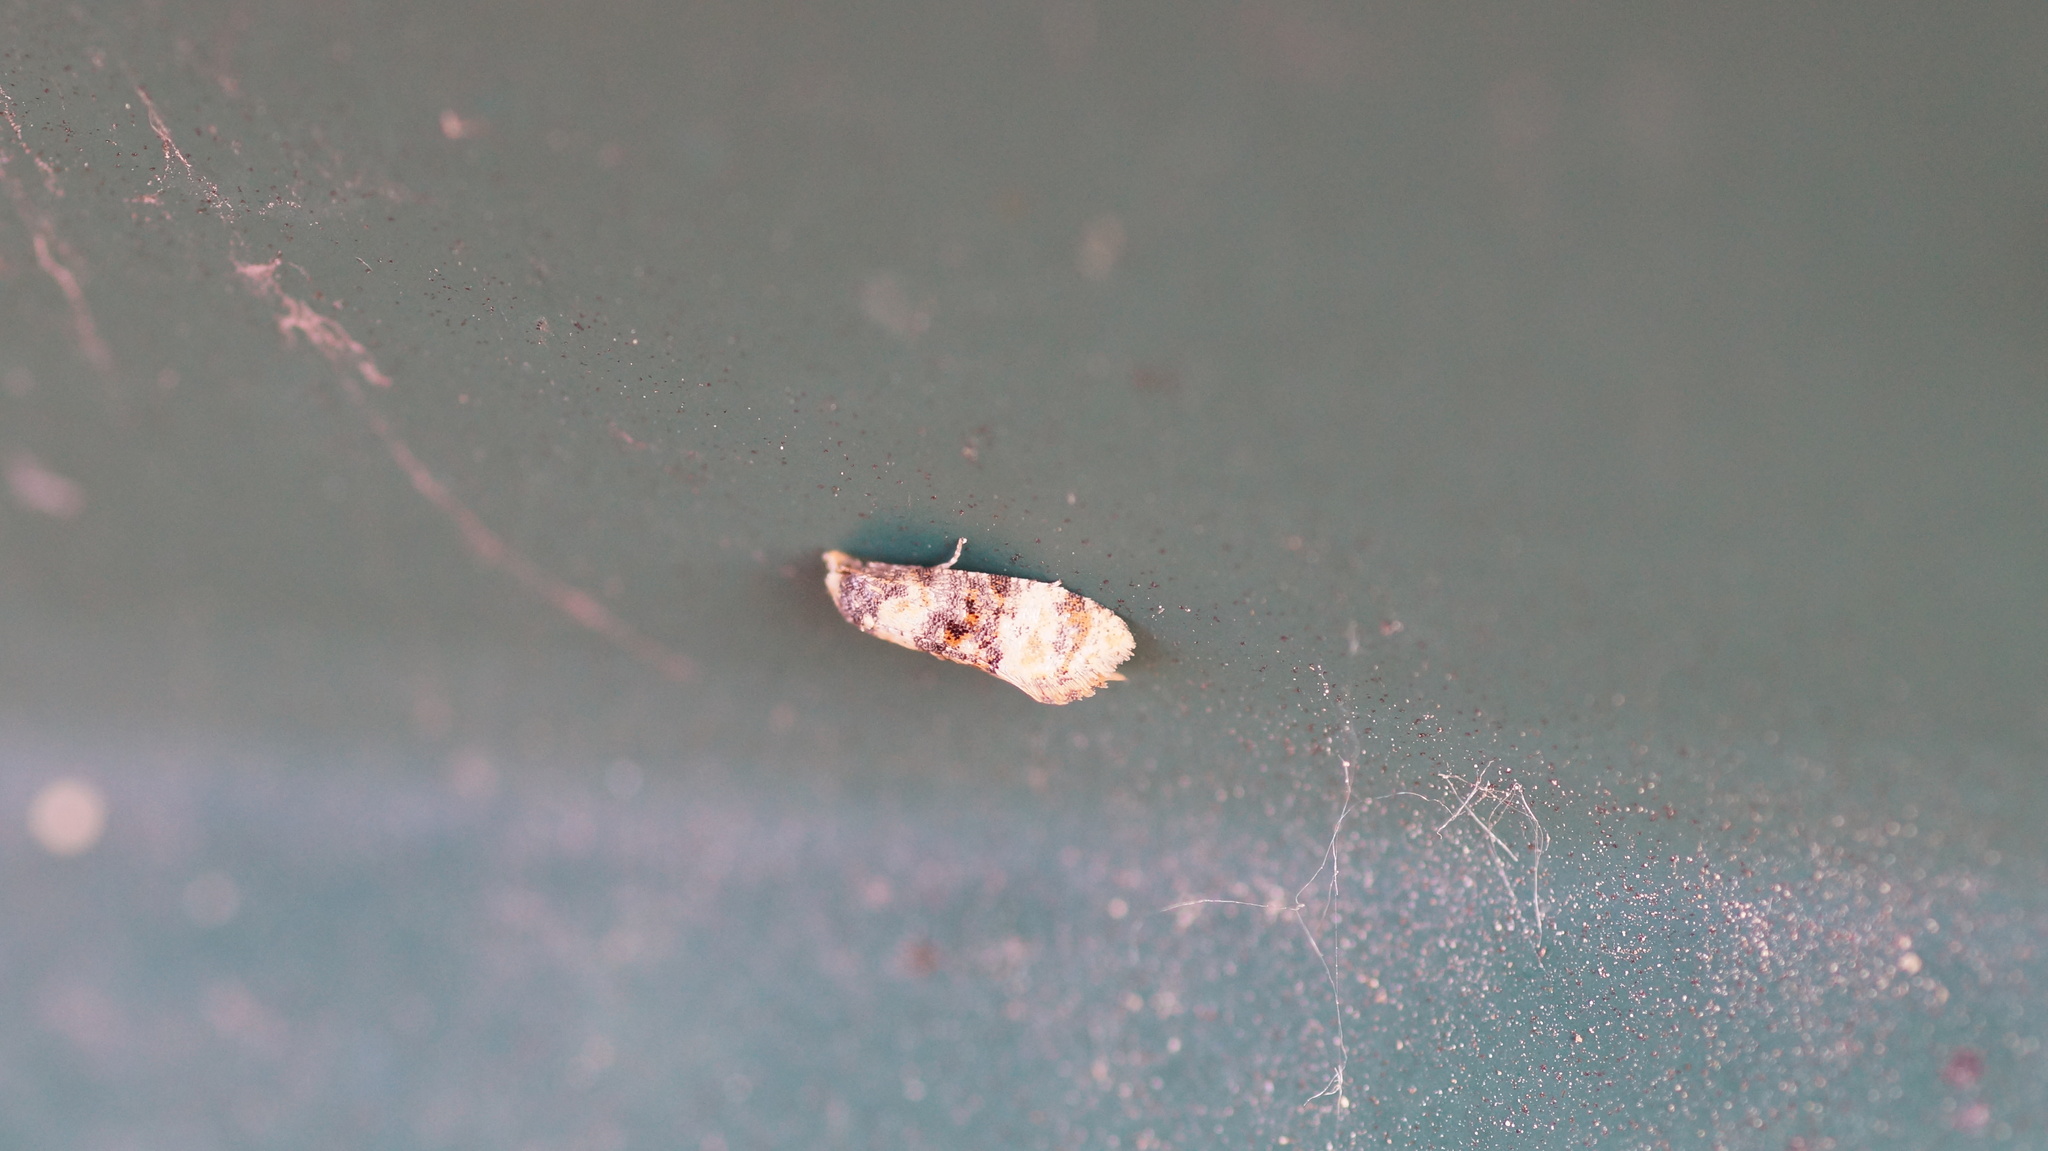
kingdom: Animalia
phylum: Arthropoda
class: Insecta
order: Lepidoptera
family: Tortricidae
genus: Thyraylia
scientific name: Thyraylia nana
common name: Birch conch
